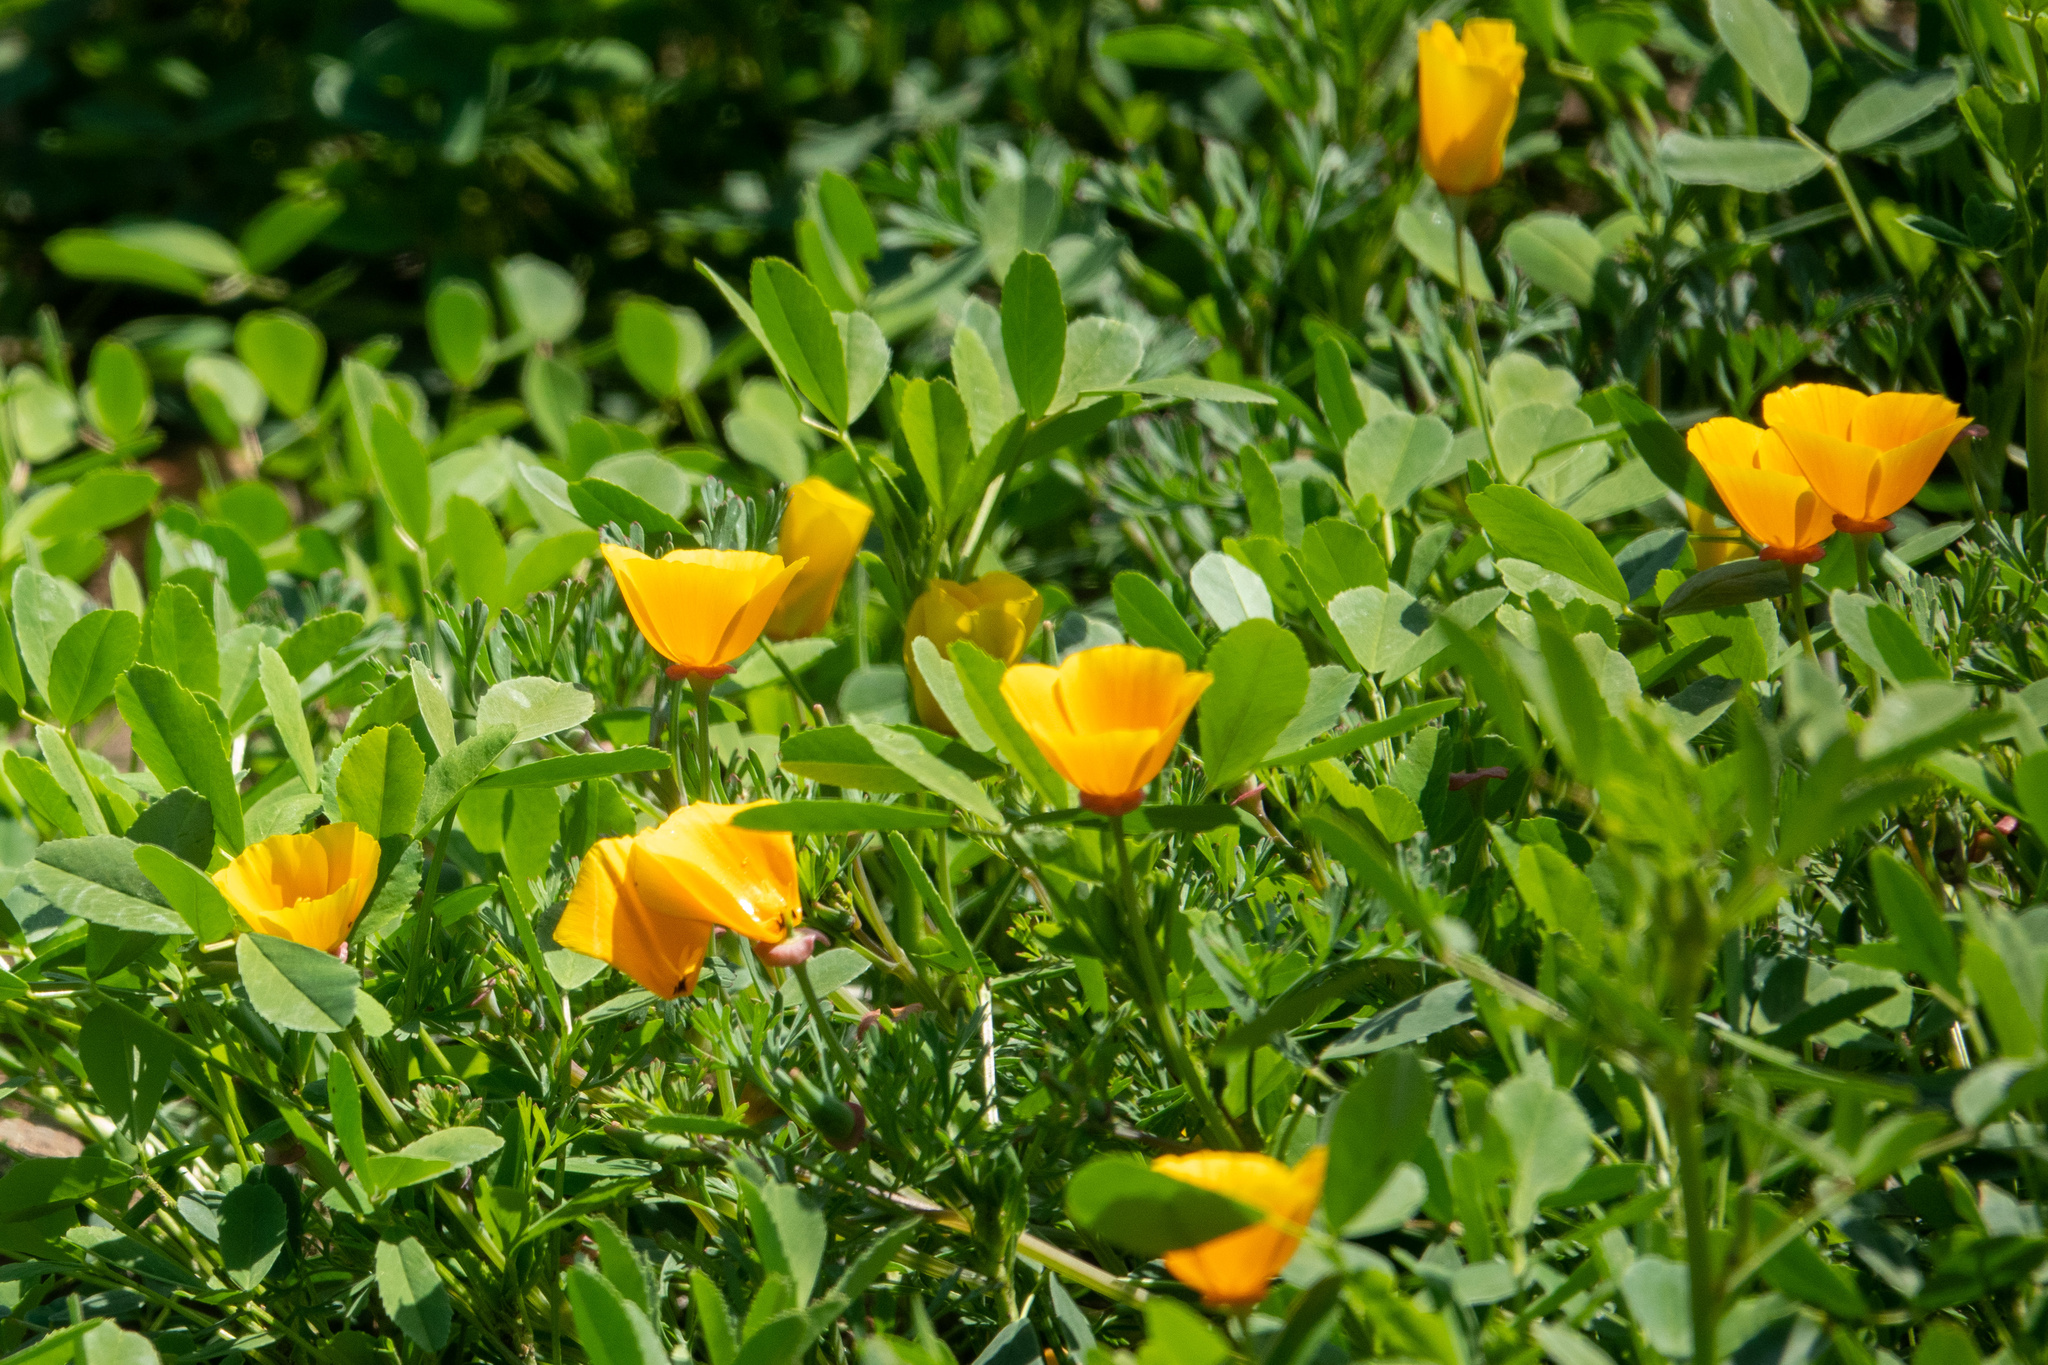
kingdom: Plantae
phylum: Tracheophyta
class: Magnoliopsida
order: Ranunculales
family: Papaveraceae
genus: Eschscholzia
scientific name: Eschscholzia californica
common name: California poppy
